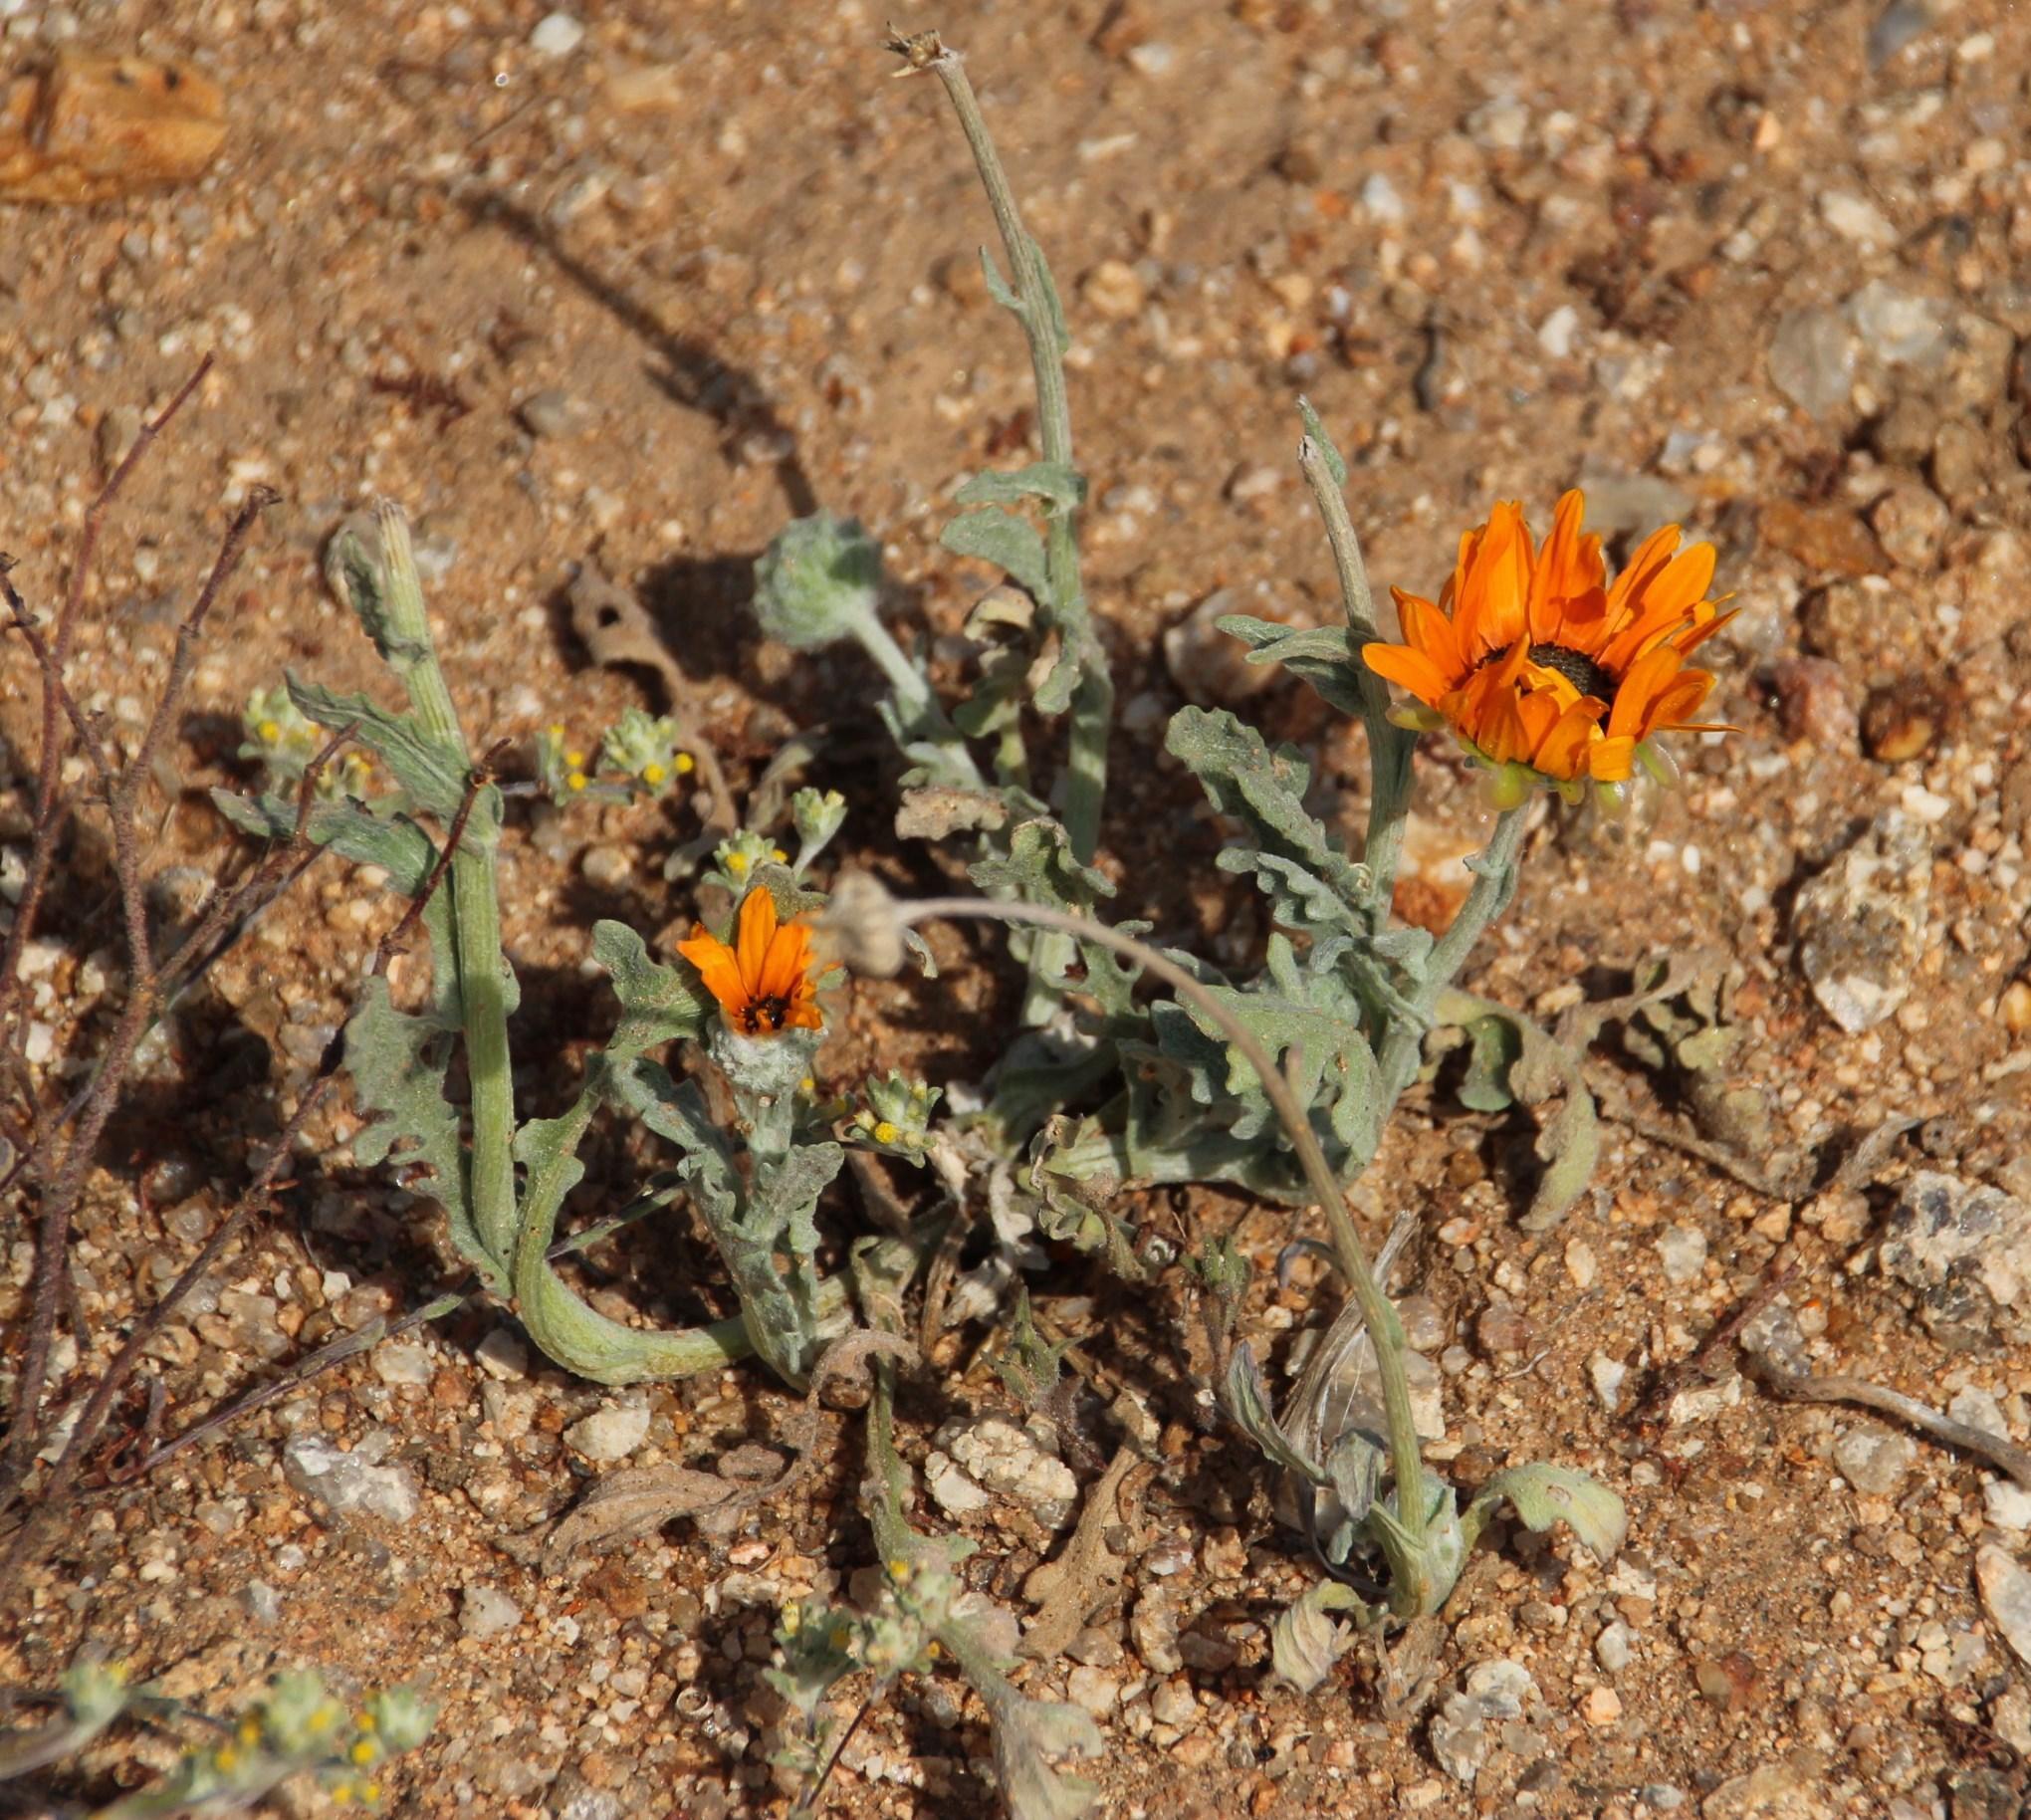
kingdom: Plantae
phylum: Tracheophyta
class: Magnoliopsida
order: Asterales
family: Asteraceae
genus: Arctotis
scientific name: Arctotis fastuosa
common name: Monarch of the veld
